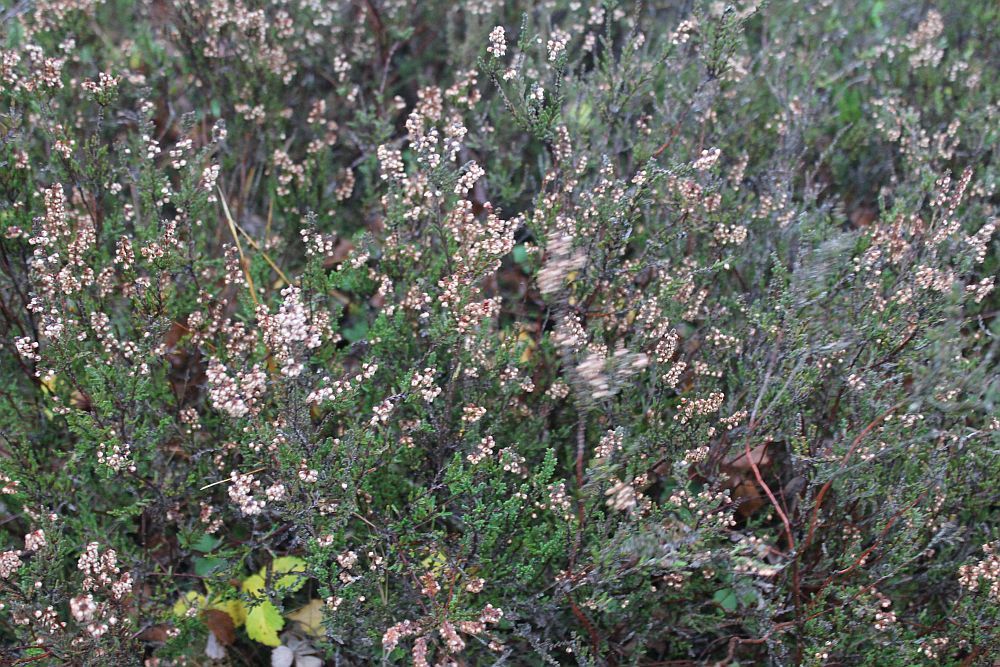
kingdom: Plantae
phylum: Tracheophyta
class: Magnoliopsida
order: Ericales
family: Ericaceae
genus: Calluna
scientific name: Calluna vulgaris
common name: Heather
